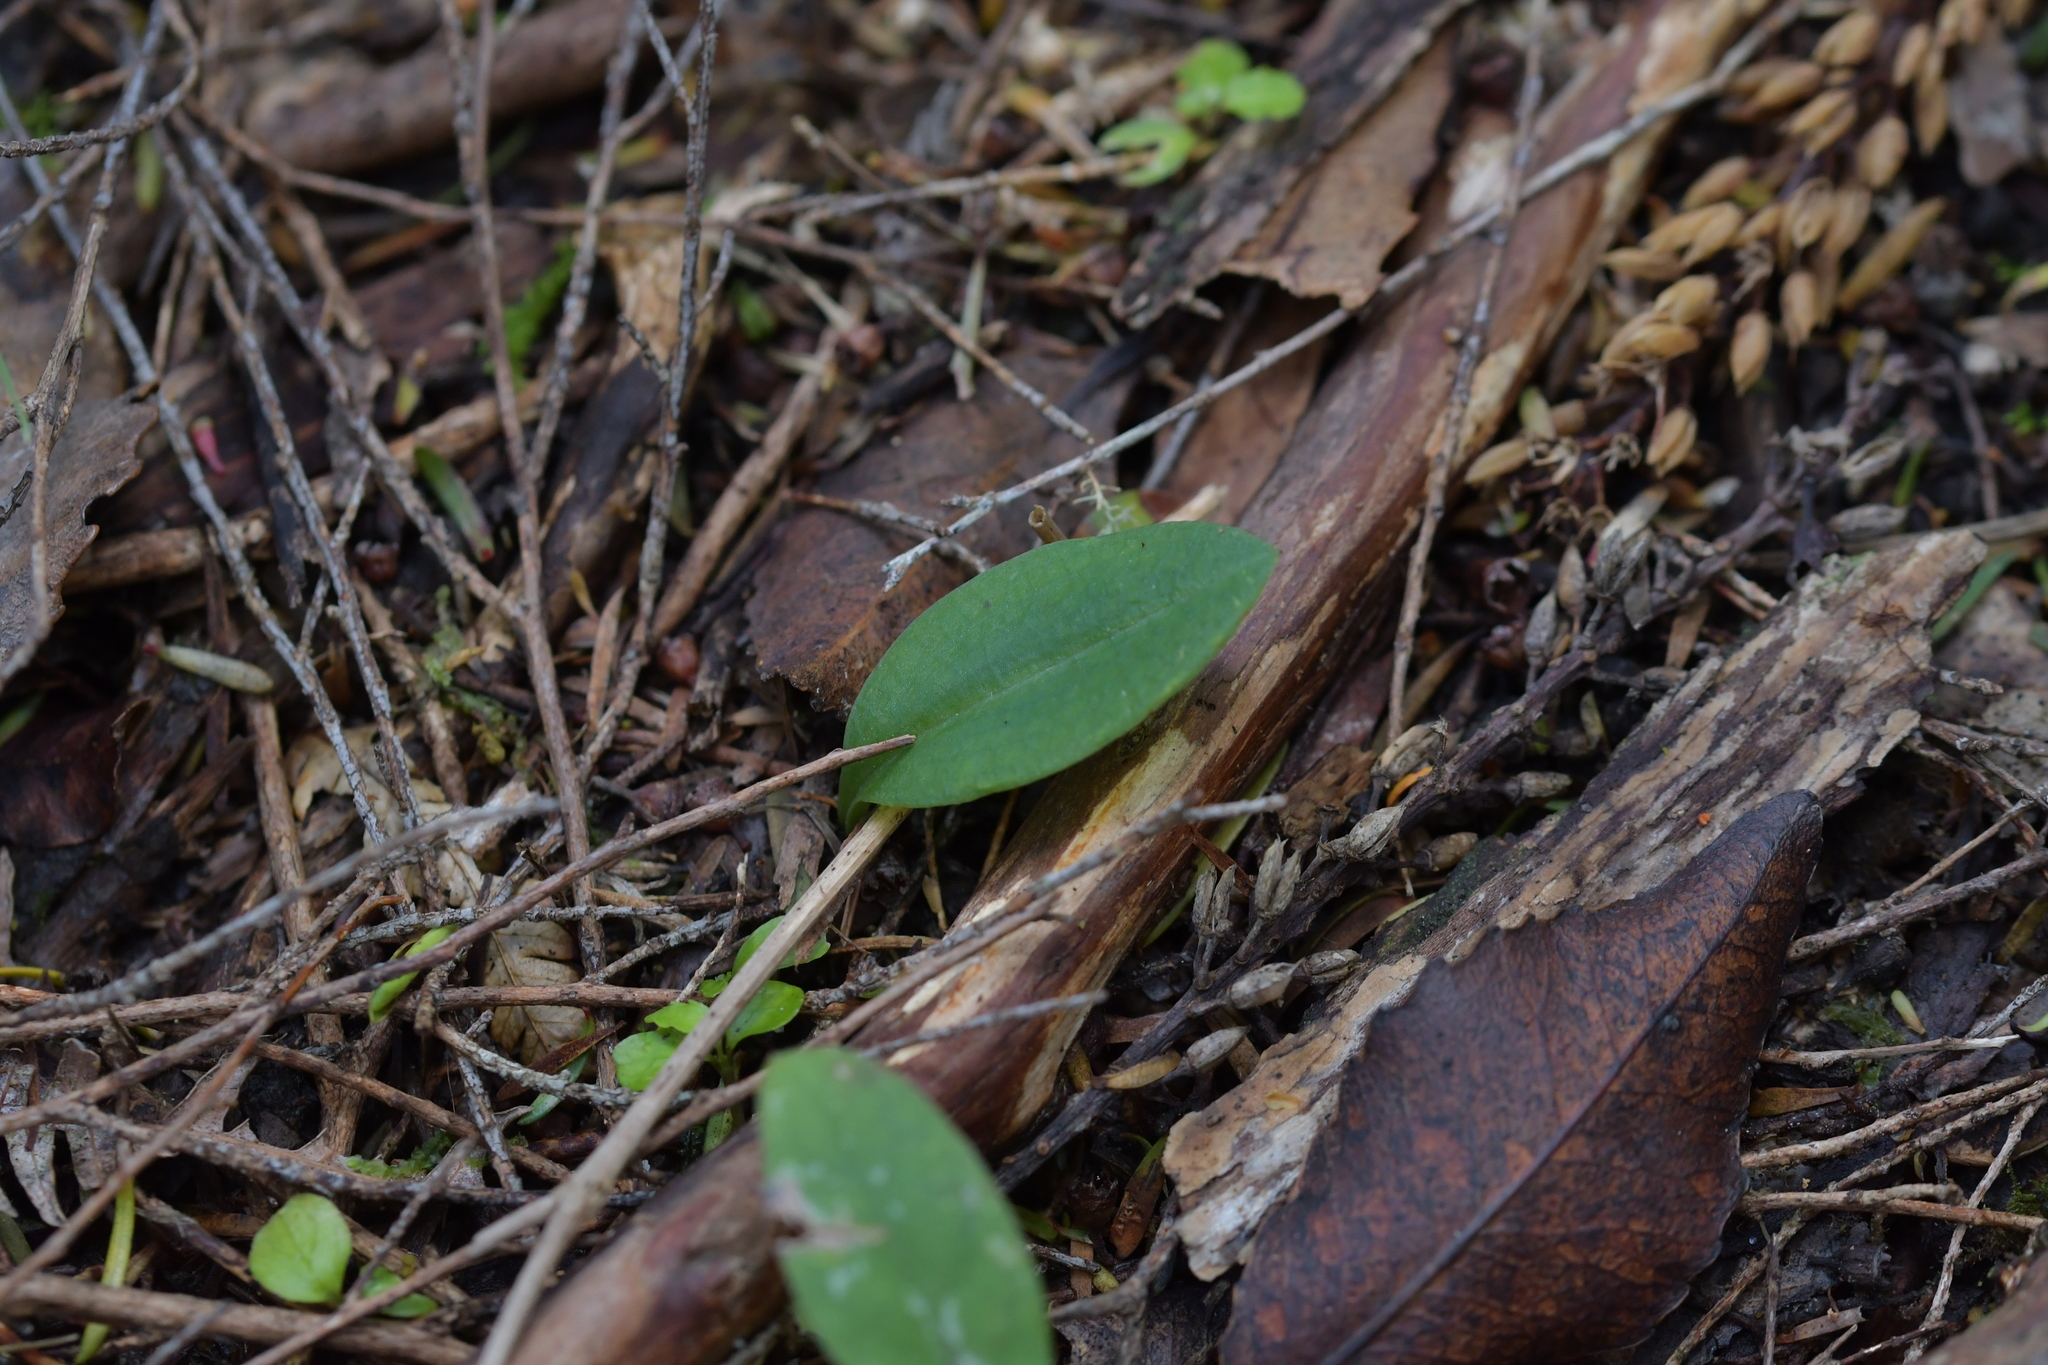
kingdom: Plantae
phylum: Tracheophyta
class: Liliopsida
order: Asparagales
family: Orchidaceae
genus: Chiloglottis
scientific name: Chiloglottis cornuta
